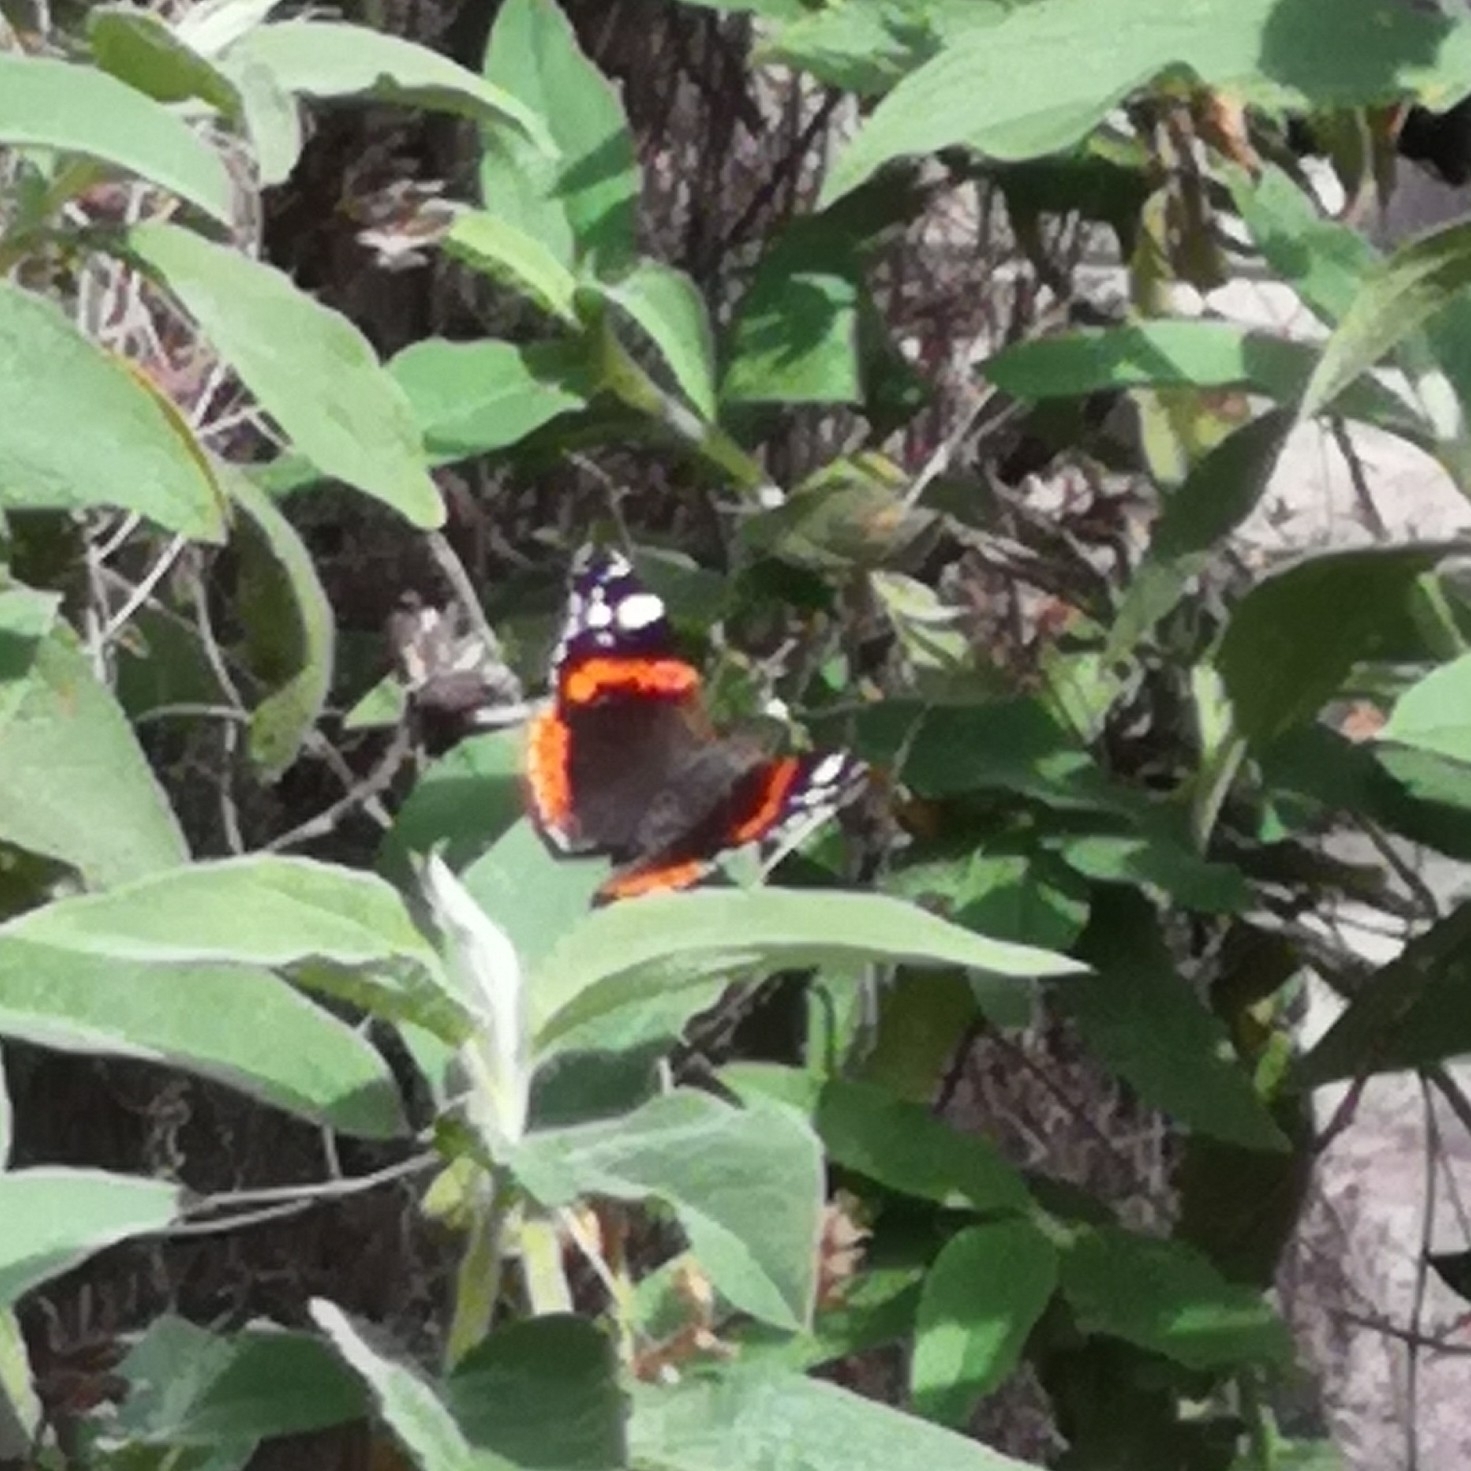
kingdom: Animalia
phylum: Arthropoda
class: Insecta
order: Lepidoptera
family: Nymphalidae
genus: Vanessa
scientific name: Vanessa atalanta
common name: Red admiral
